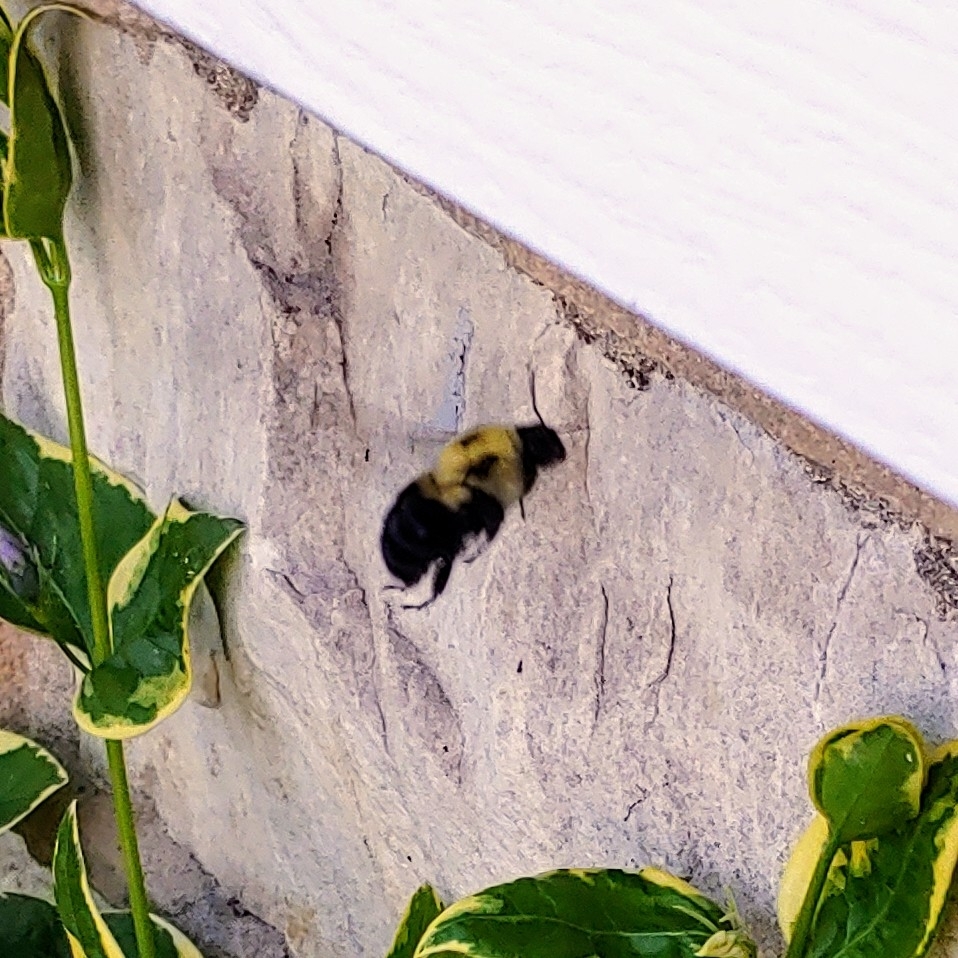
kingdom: Animalia
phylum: Arthropoda
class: Insecta
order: Hymenoptera
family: Apidae
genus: Bombus
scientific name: Bombus griseocollis
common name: Brown-belted bumble bee
